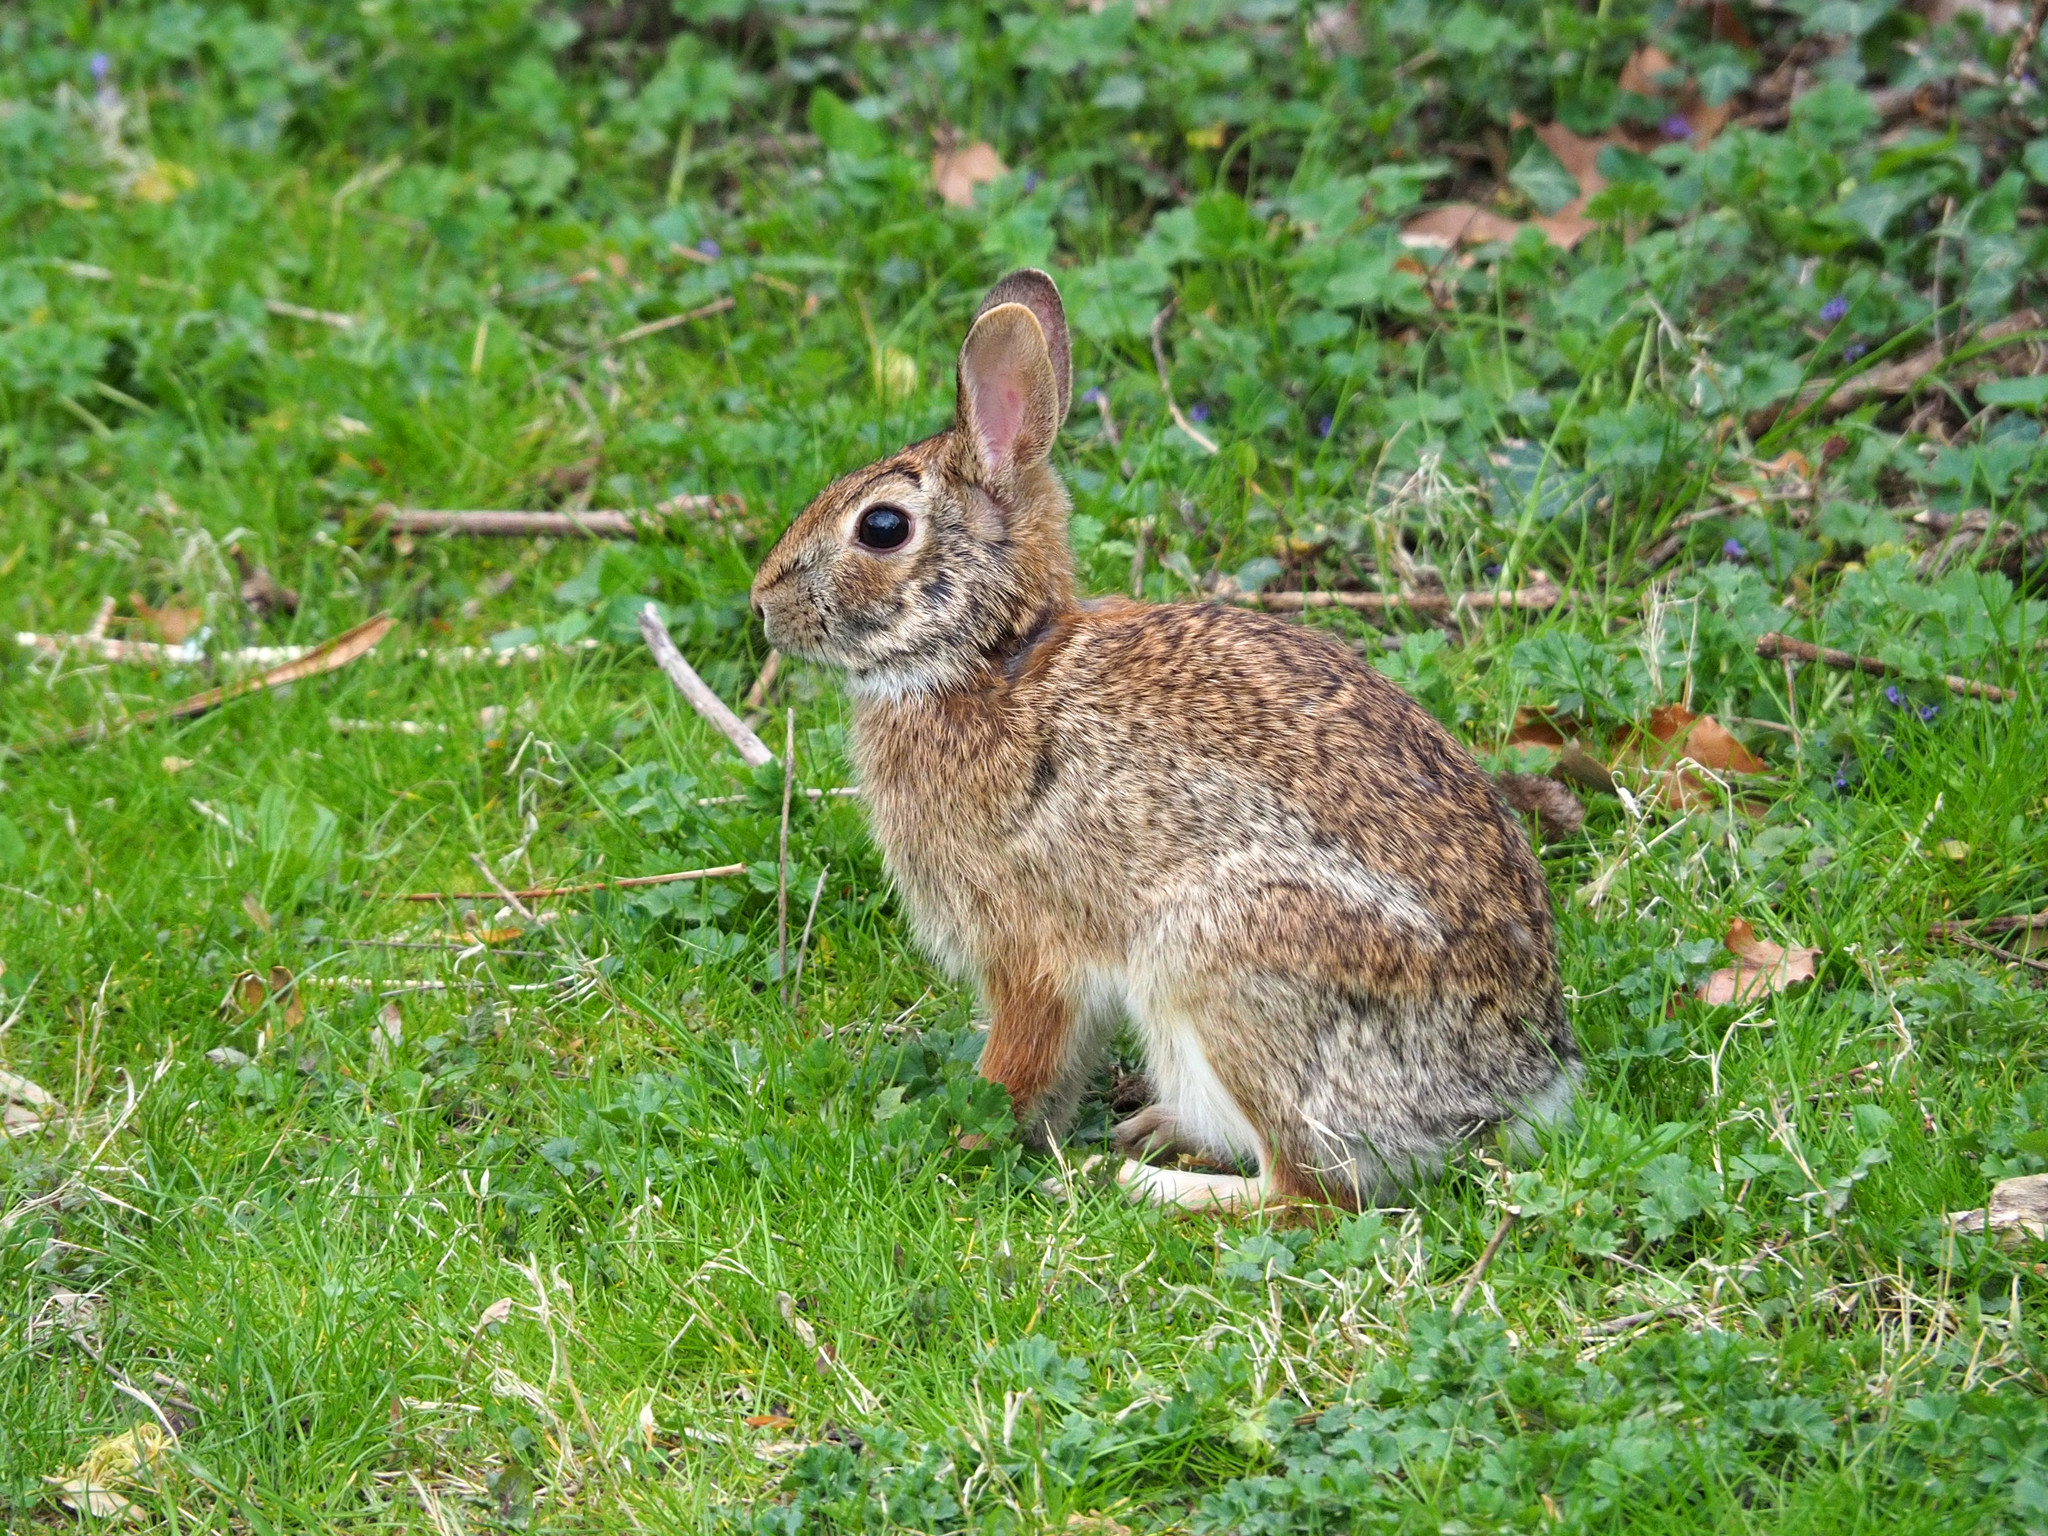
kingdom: Animalia
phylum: Chordata
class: Mammalia
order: Lagomorpha
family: Leporidae
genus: Sylvilagus
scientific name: Sylvilagus floridanus
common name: Eastern cottontail
